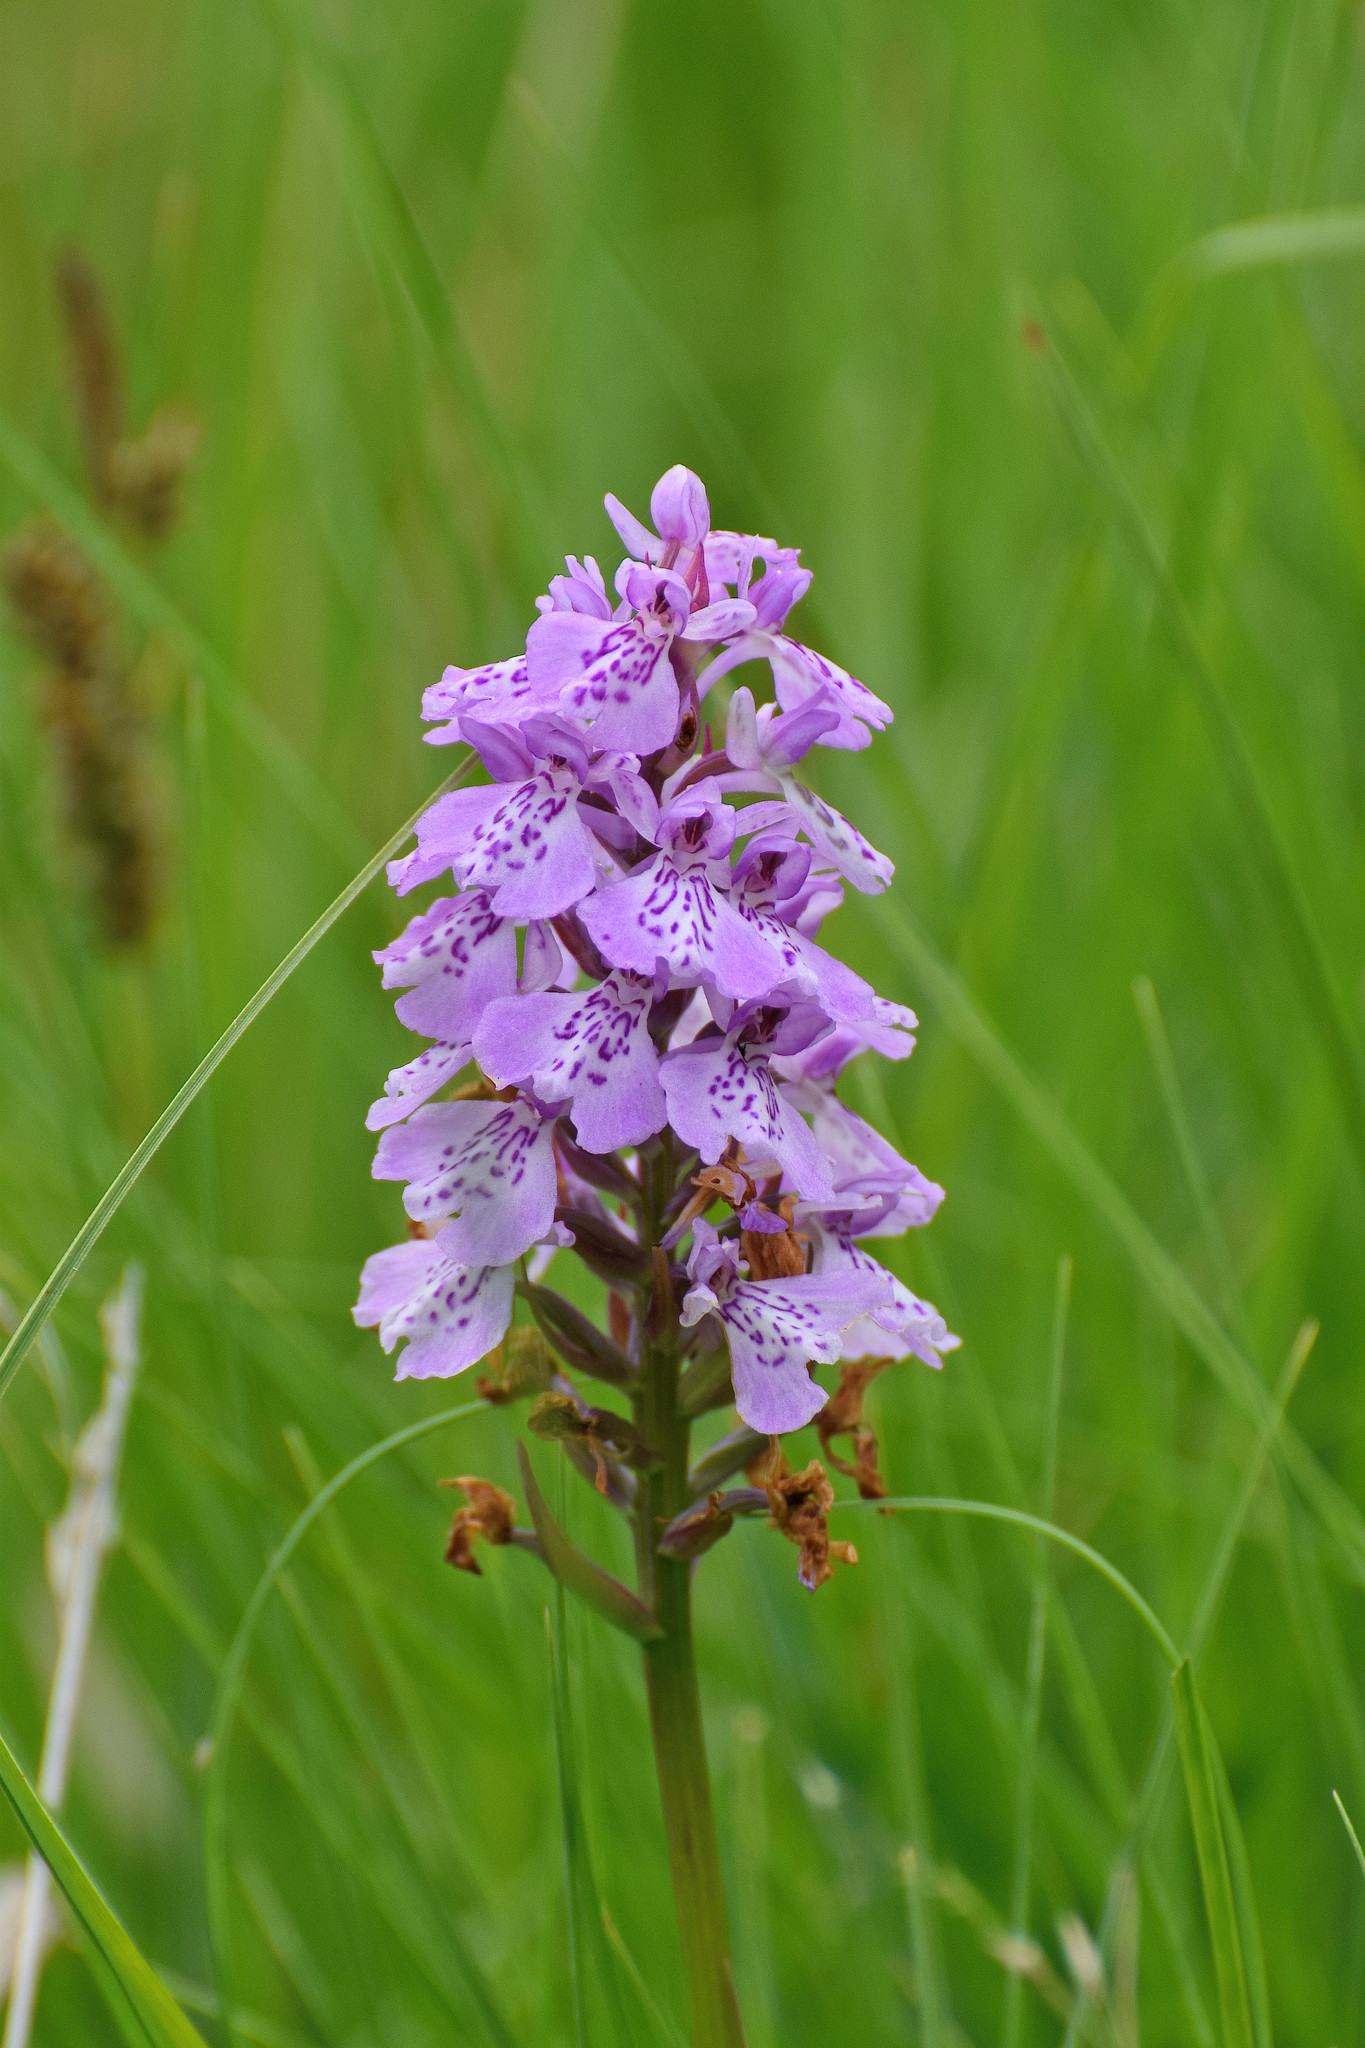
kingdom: Plantae
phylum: Tracheophyta
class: Liliopsida
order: Asparagales
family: Orchidaceae
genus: Dactylorhiza
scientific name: Dactylorhiza maculata
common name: Heath spotted-orchid
